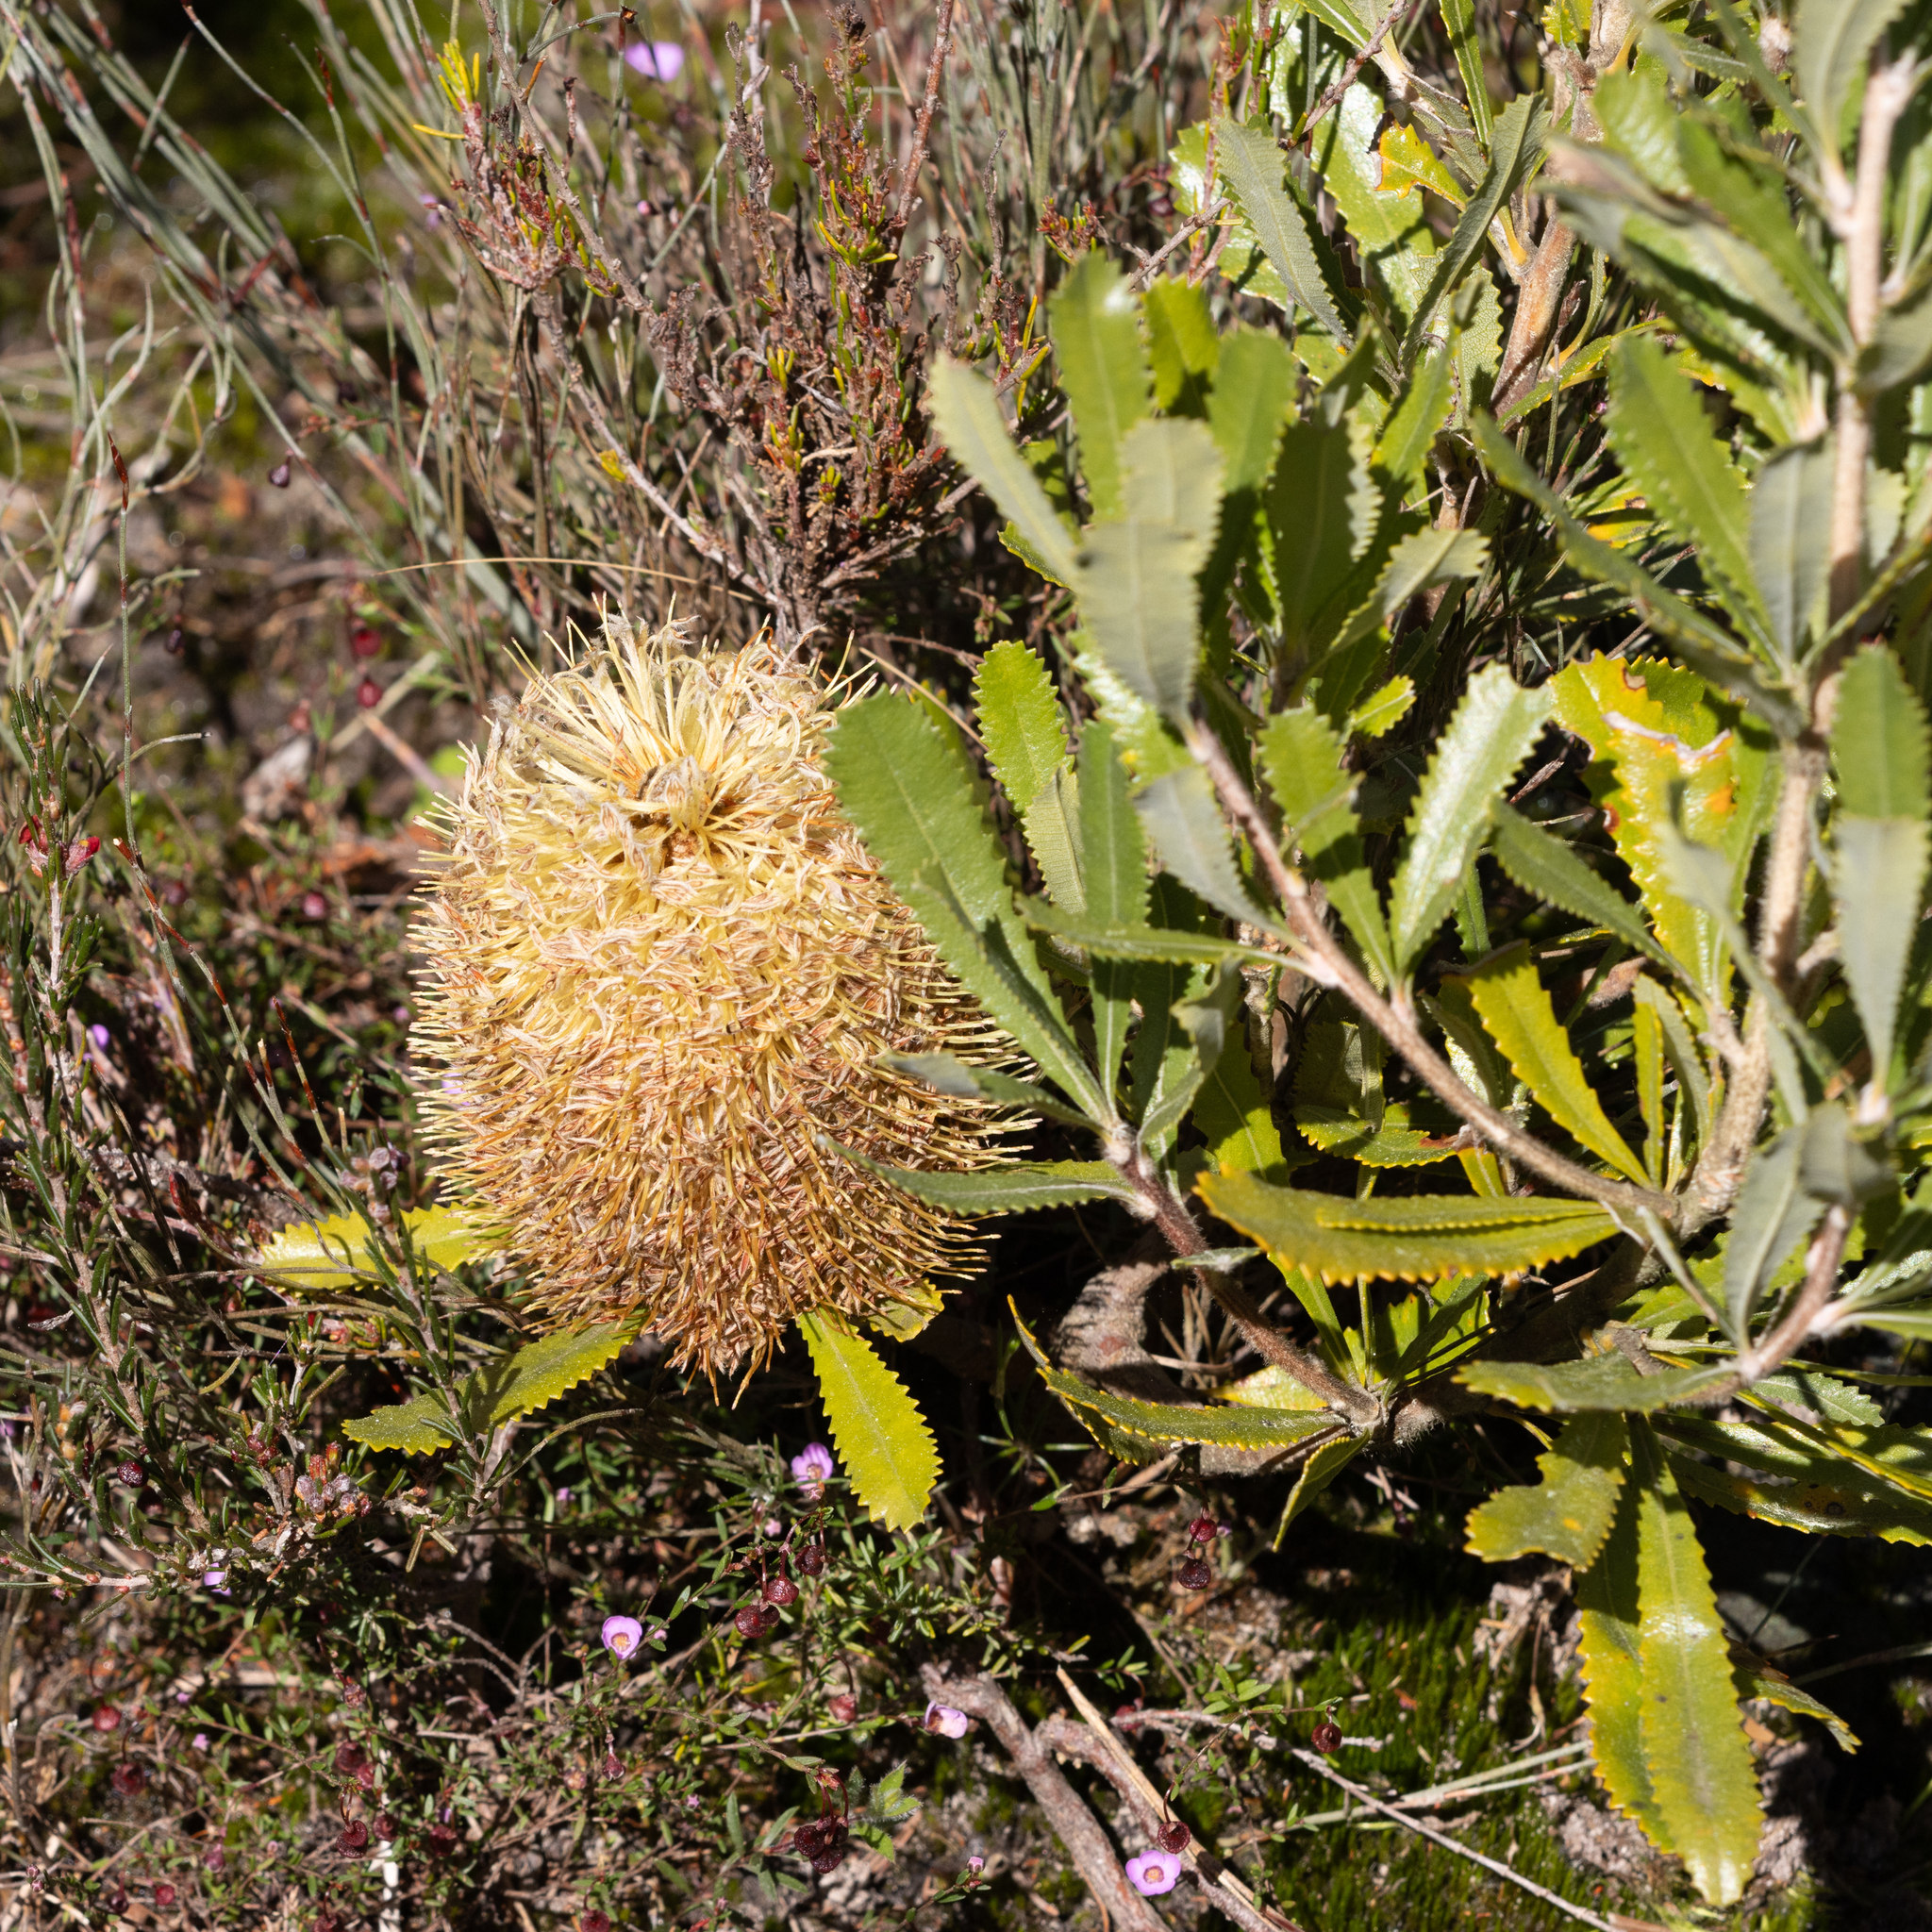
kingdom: Plantae
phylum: Tracheophyta
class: Magnoliopsida
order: Proteales
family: Proteaceae
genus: Banksia
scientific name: Banksia ornata
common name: Desert banksia
